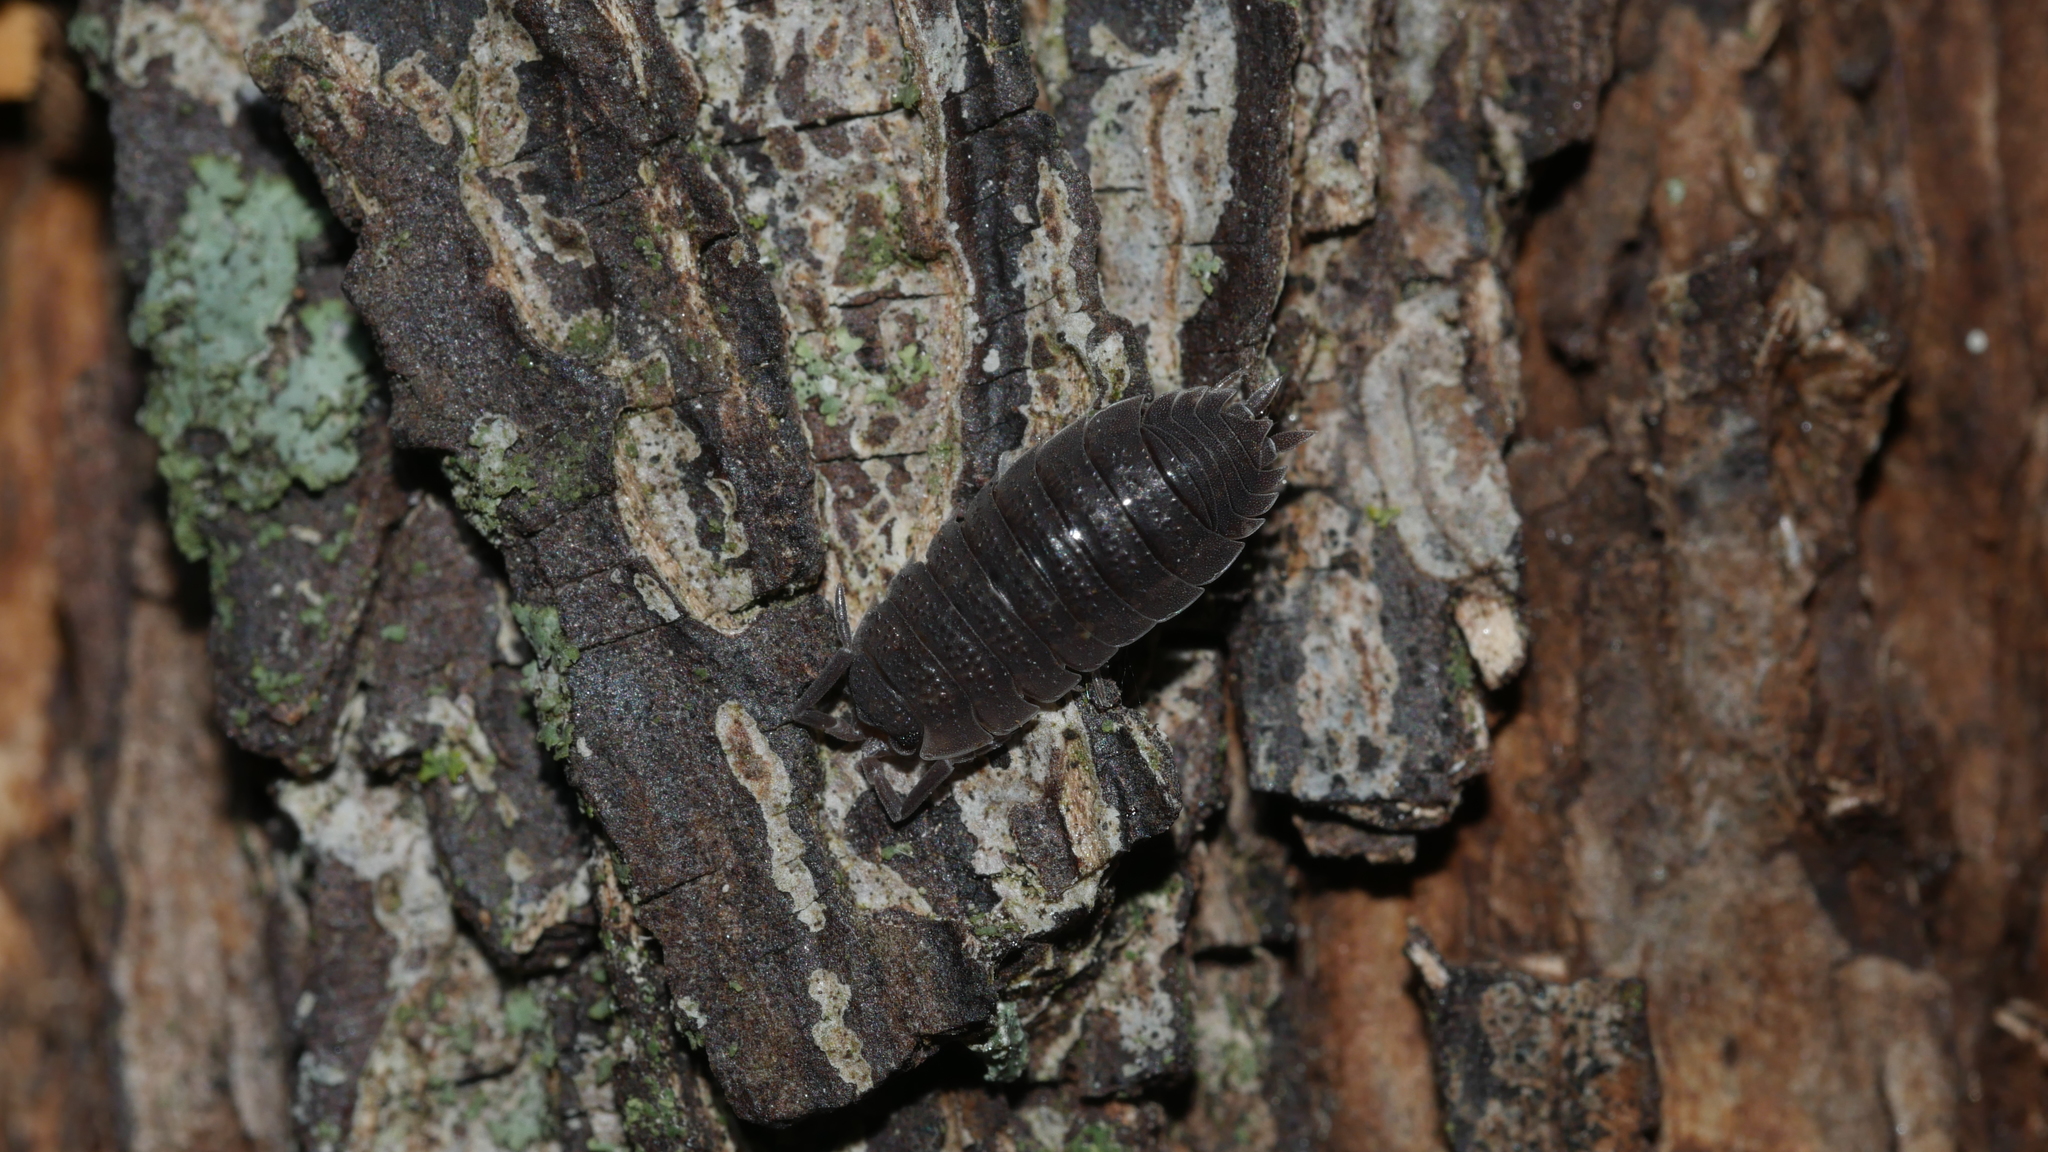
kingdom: Animalia
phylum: Arthropoda
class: Malacostraca
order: Isopoda
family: Porcellionidae
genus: Porcellio
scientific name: Porcellio scaber
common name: Common rough woodlouse
